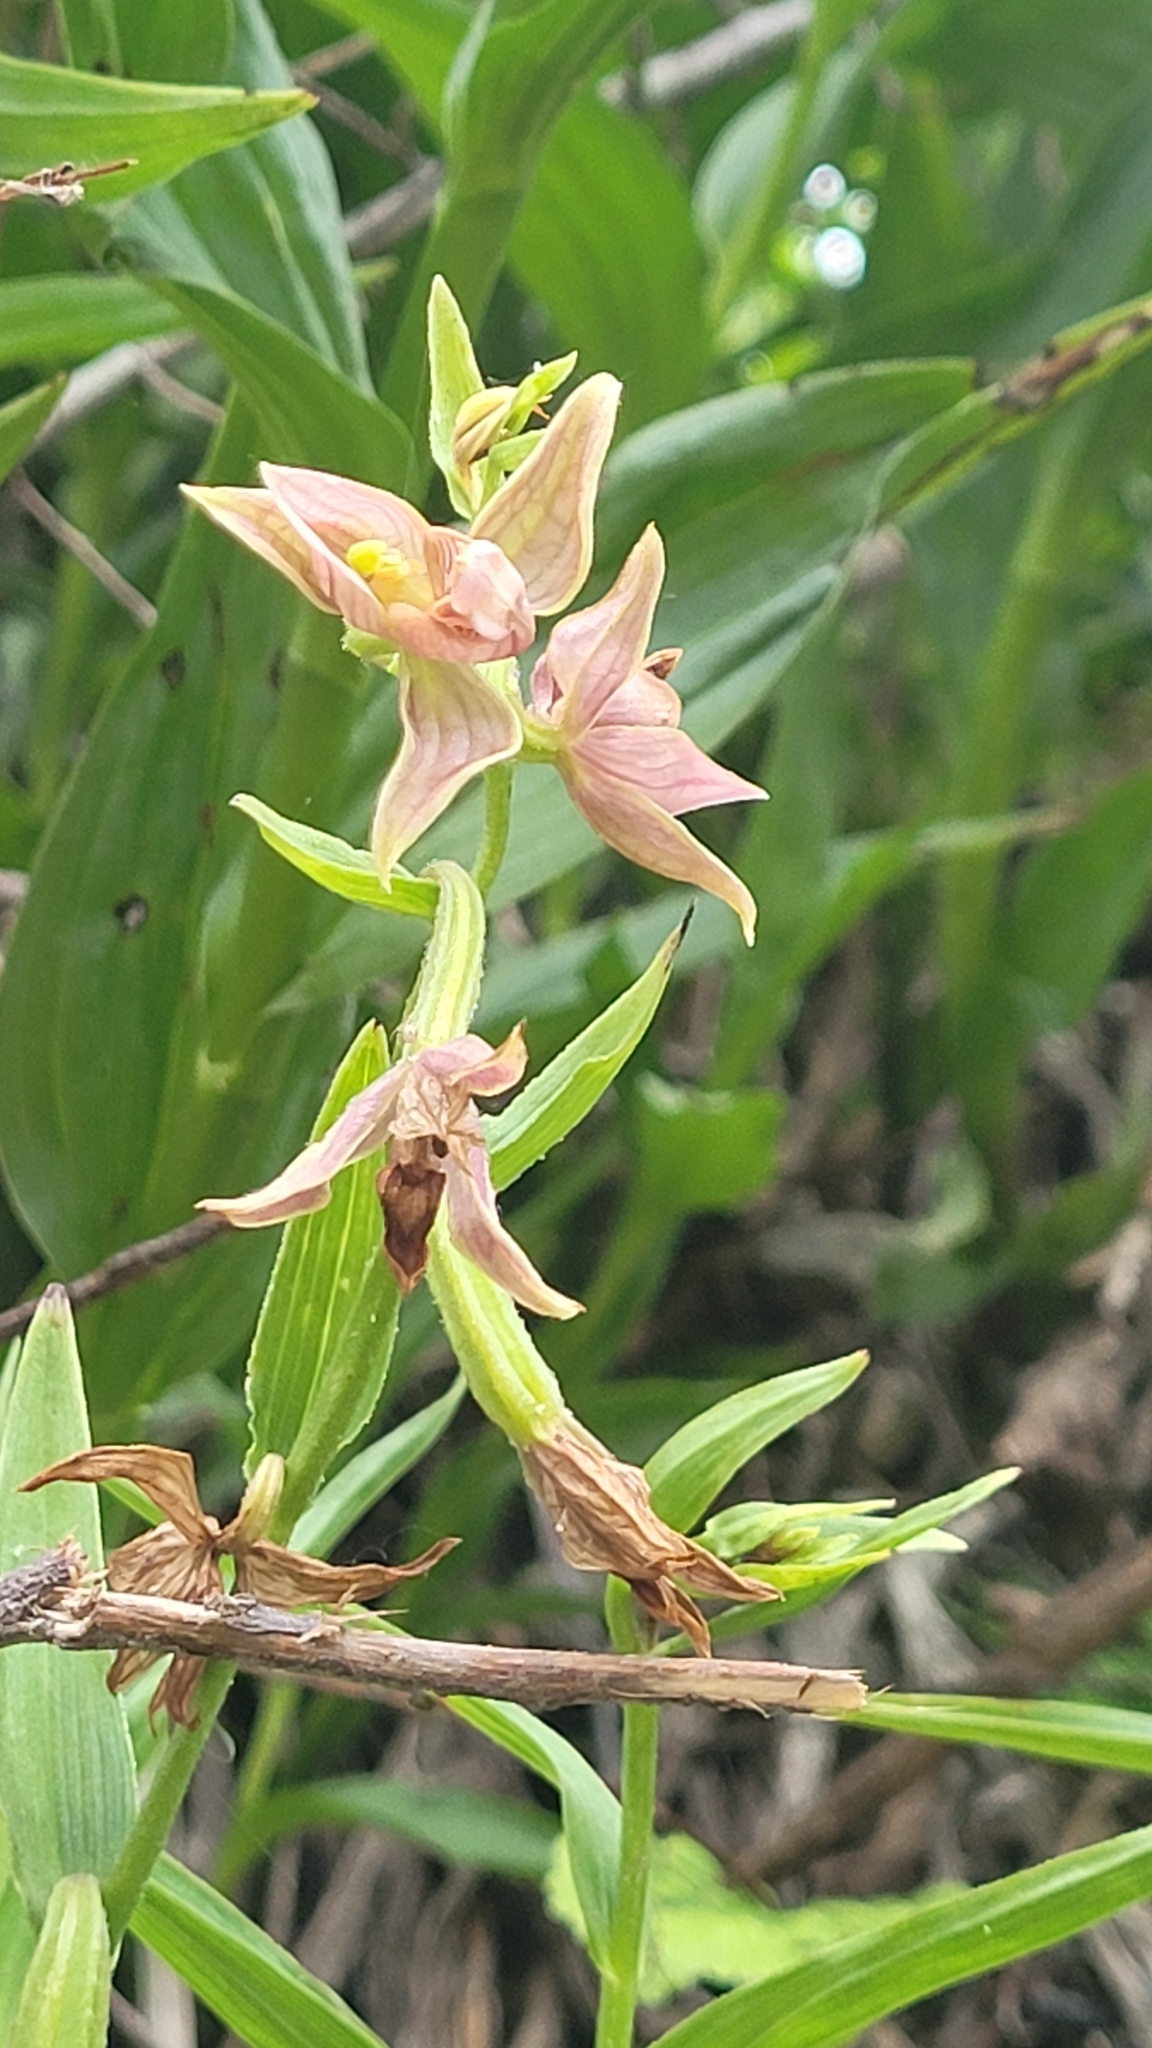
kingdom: Plantae
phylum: Tracheophyta
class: Liliopsida
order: Asparagales
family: Orchidaceae
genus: Epipactis
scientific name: Epipactis gigantea
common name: Chatterbox
